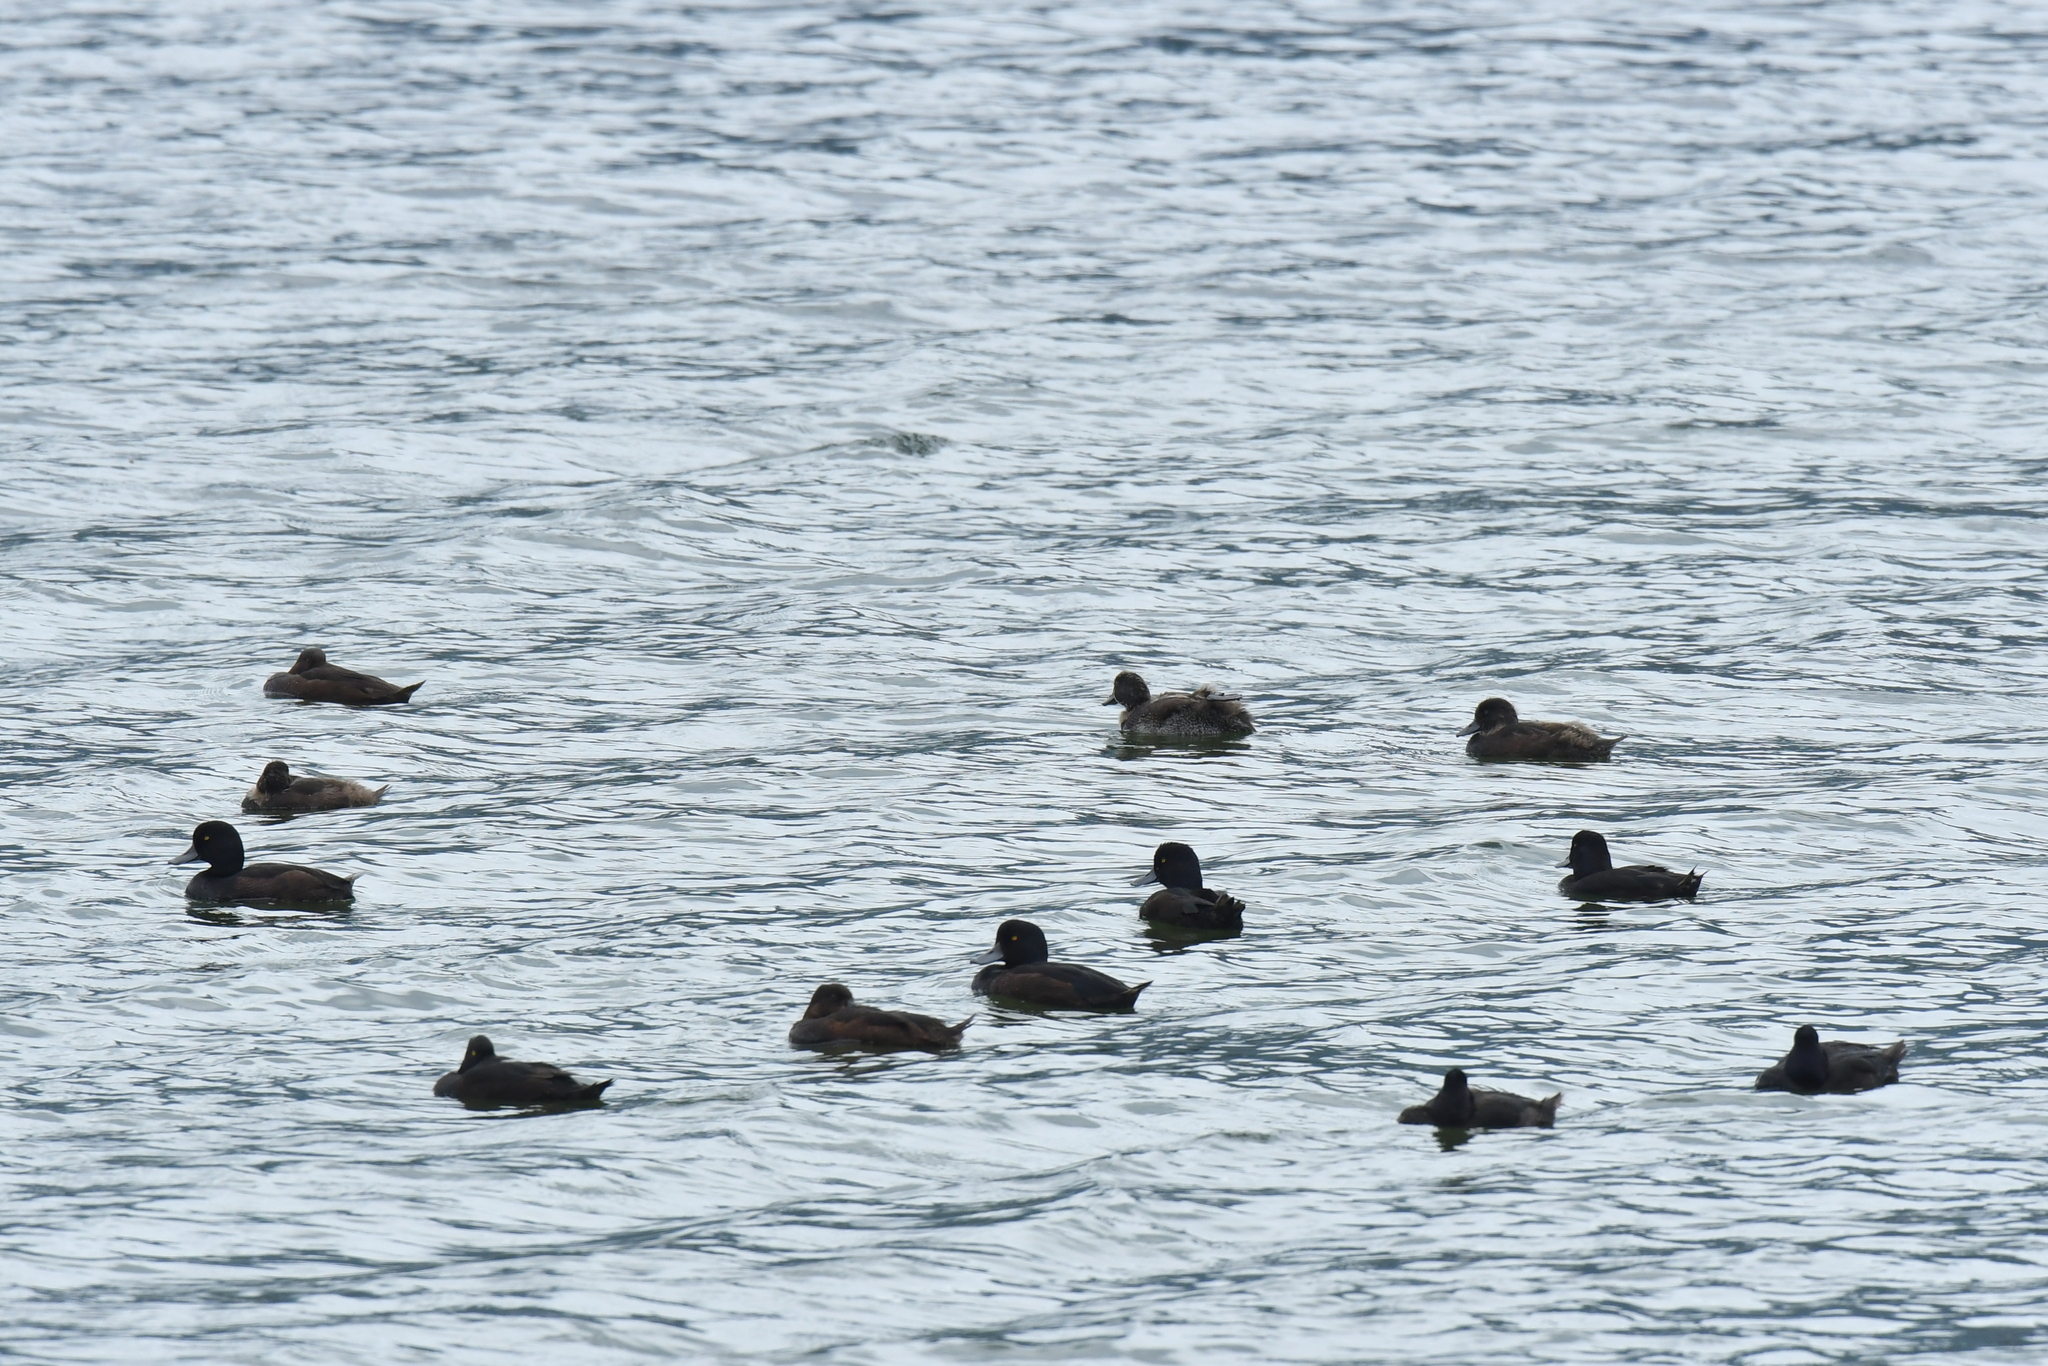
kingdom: Animalia
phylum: Chordata
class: Aves
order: Anseriformes
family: Anatidae
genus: Aythya
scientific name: Aythya novaeseelandiae
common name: New zealand scaup
